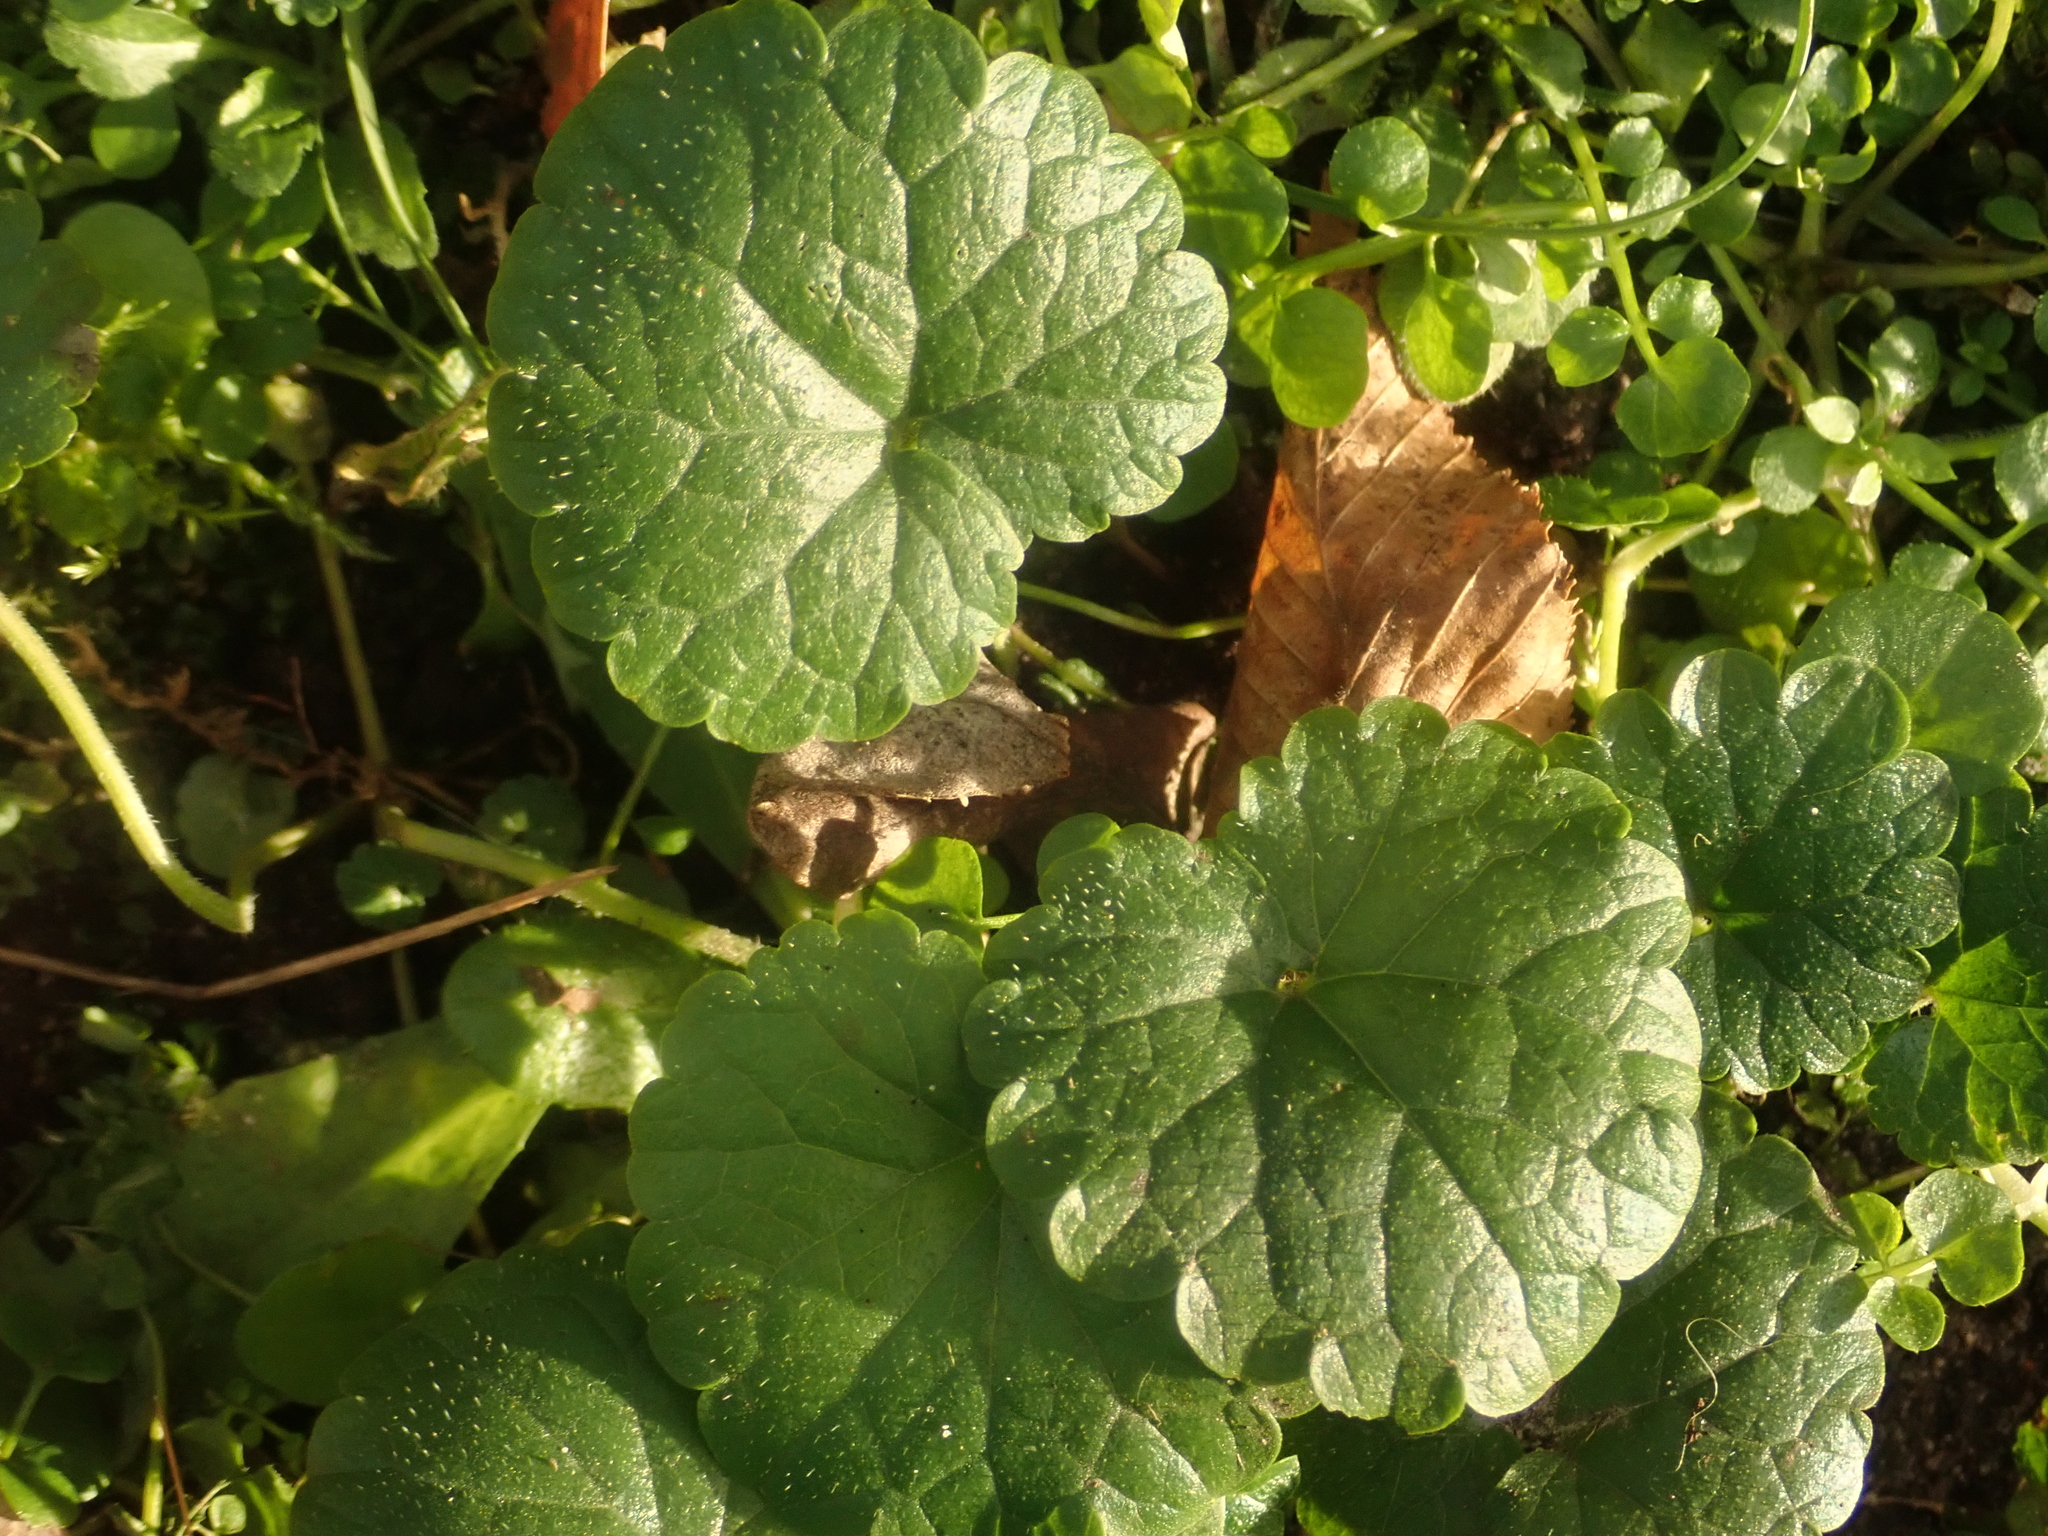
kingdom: Plantae
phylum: Tracheophyta
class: Magnoliopsida
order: Lamiales
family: Lamiaceae
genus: Glechoma
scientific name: Glechoma hederacea
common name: Ground ivy
